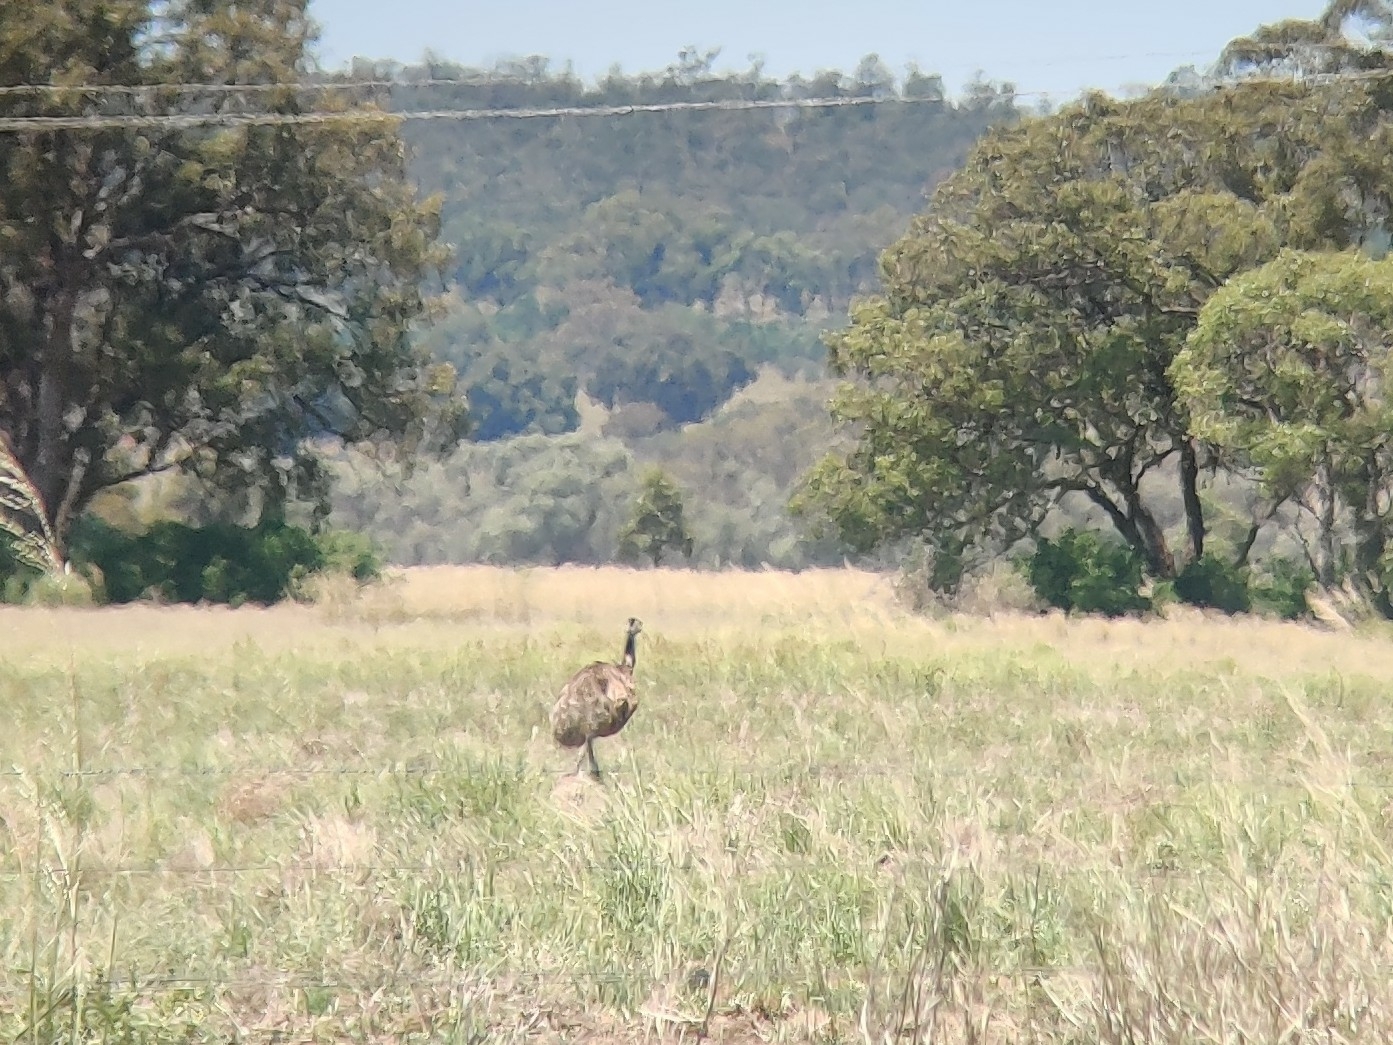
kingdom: Animalia
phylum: Chordata
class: Aves
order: Casuariiformes
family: Dromaiidae
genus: Dromaius
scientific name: Dromaius novaehollandiae
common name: Emu
